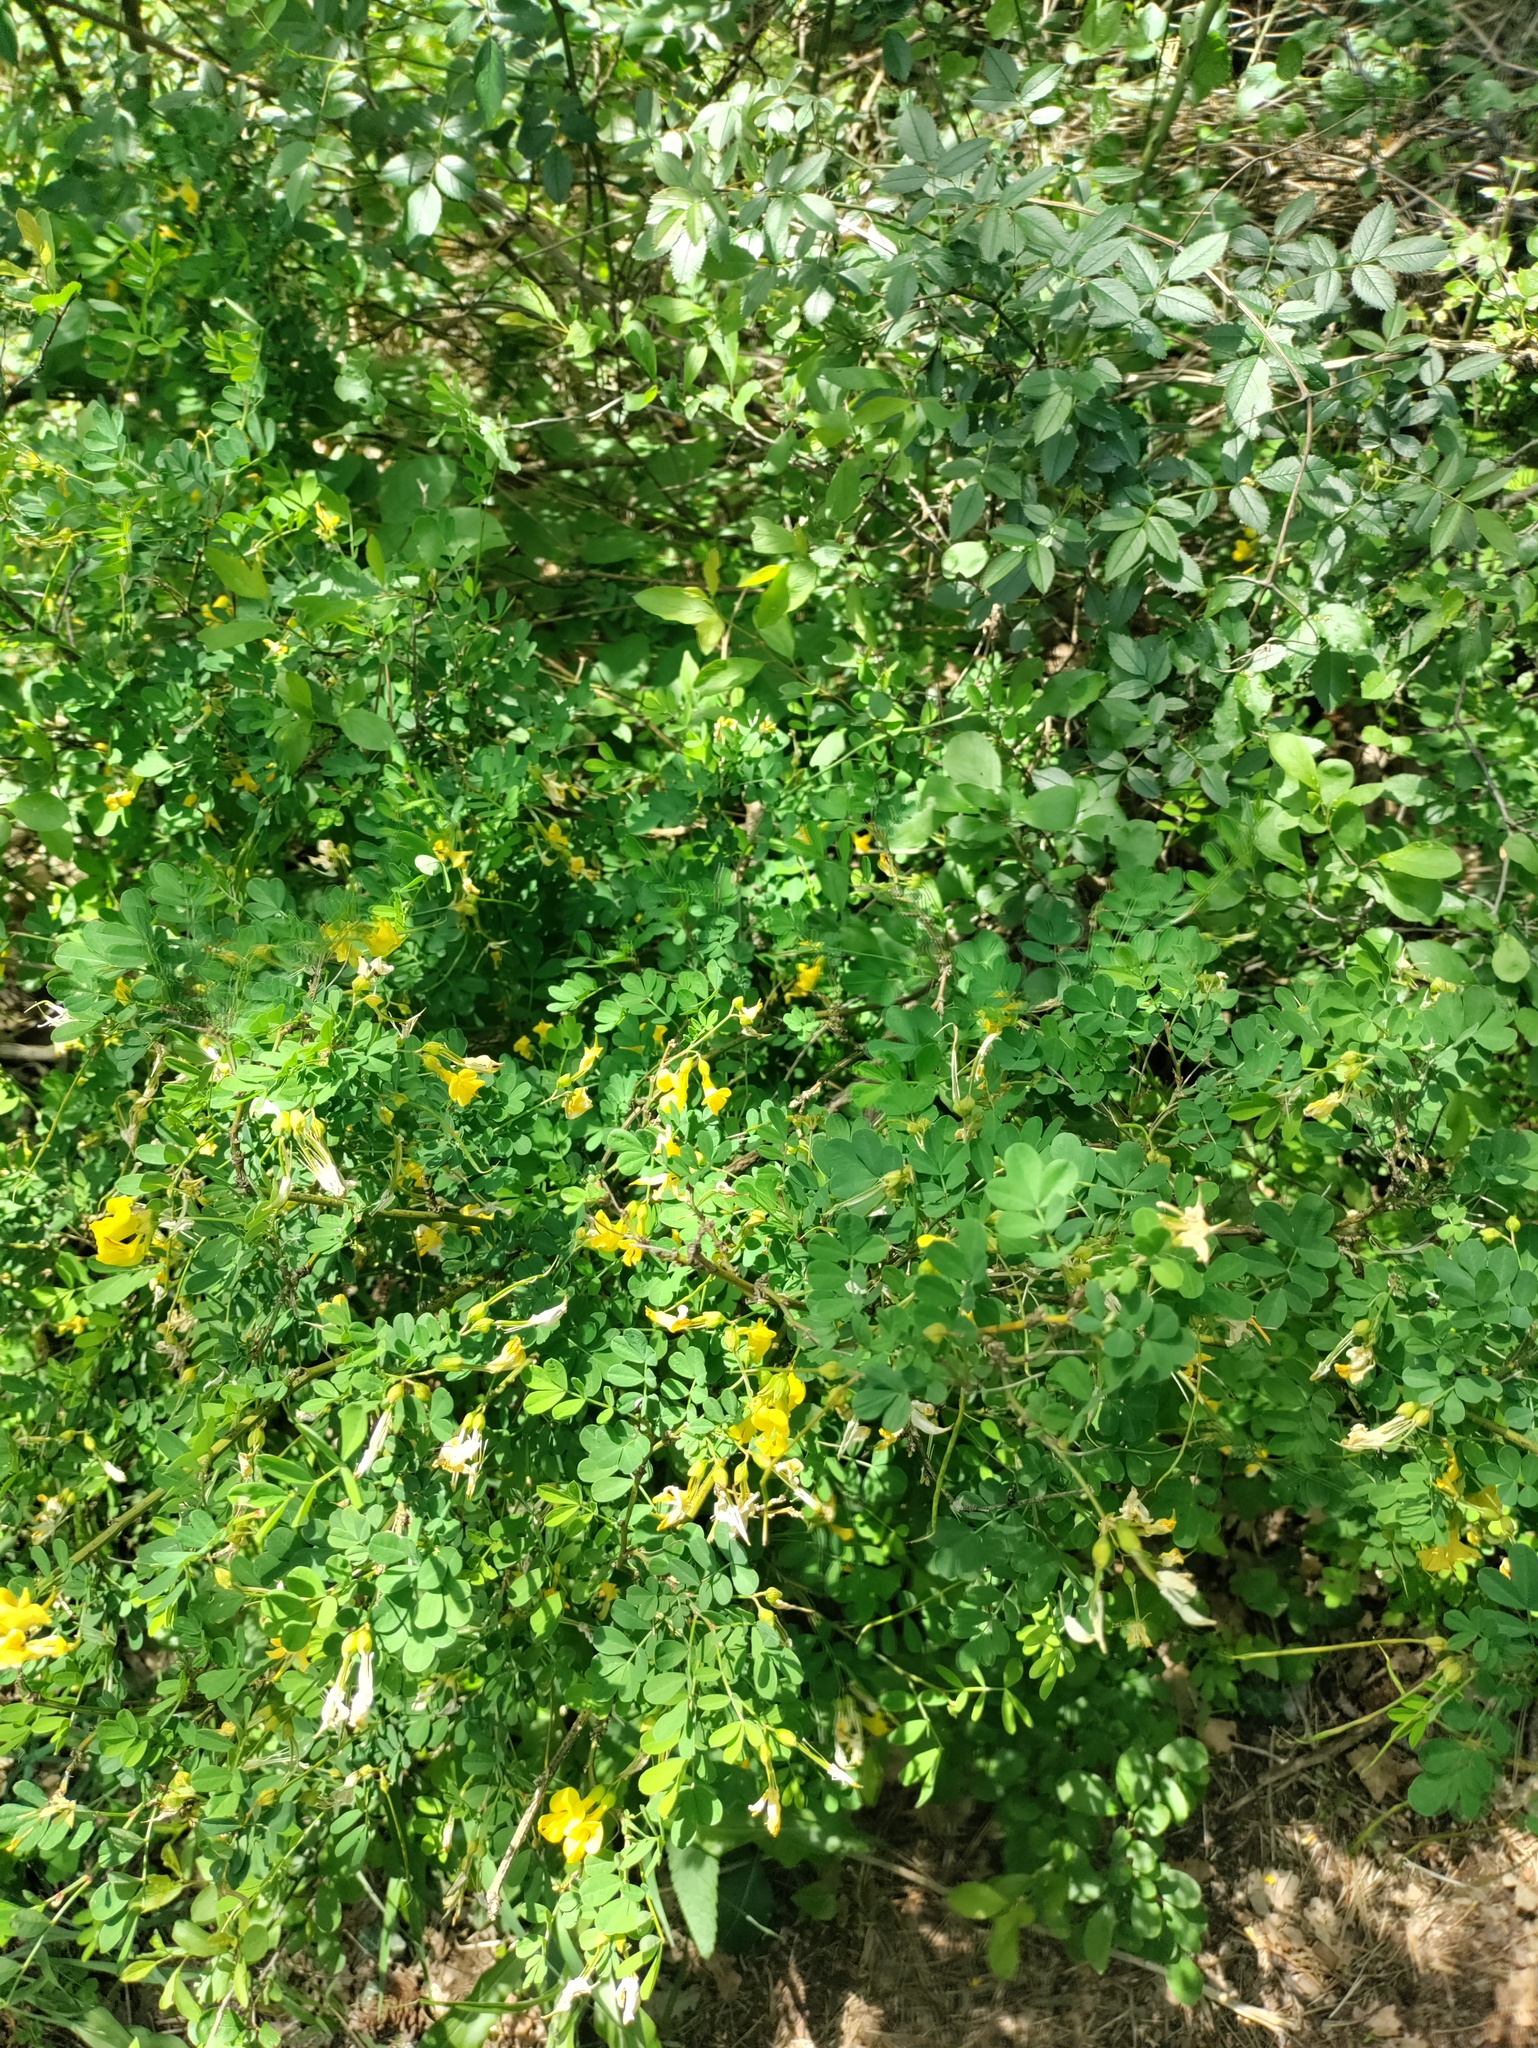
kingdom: Plantae
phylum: Tracheophyta
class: Magnoliopsida
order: Fabales
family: Fabaceae
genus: Hippocrepis
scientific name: Hippocrepis emerus
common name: Scorpion senna
